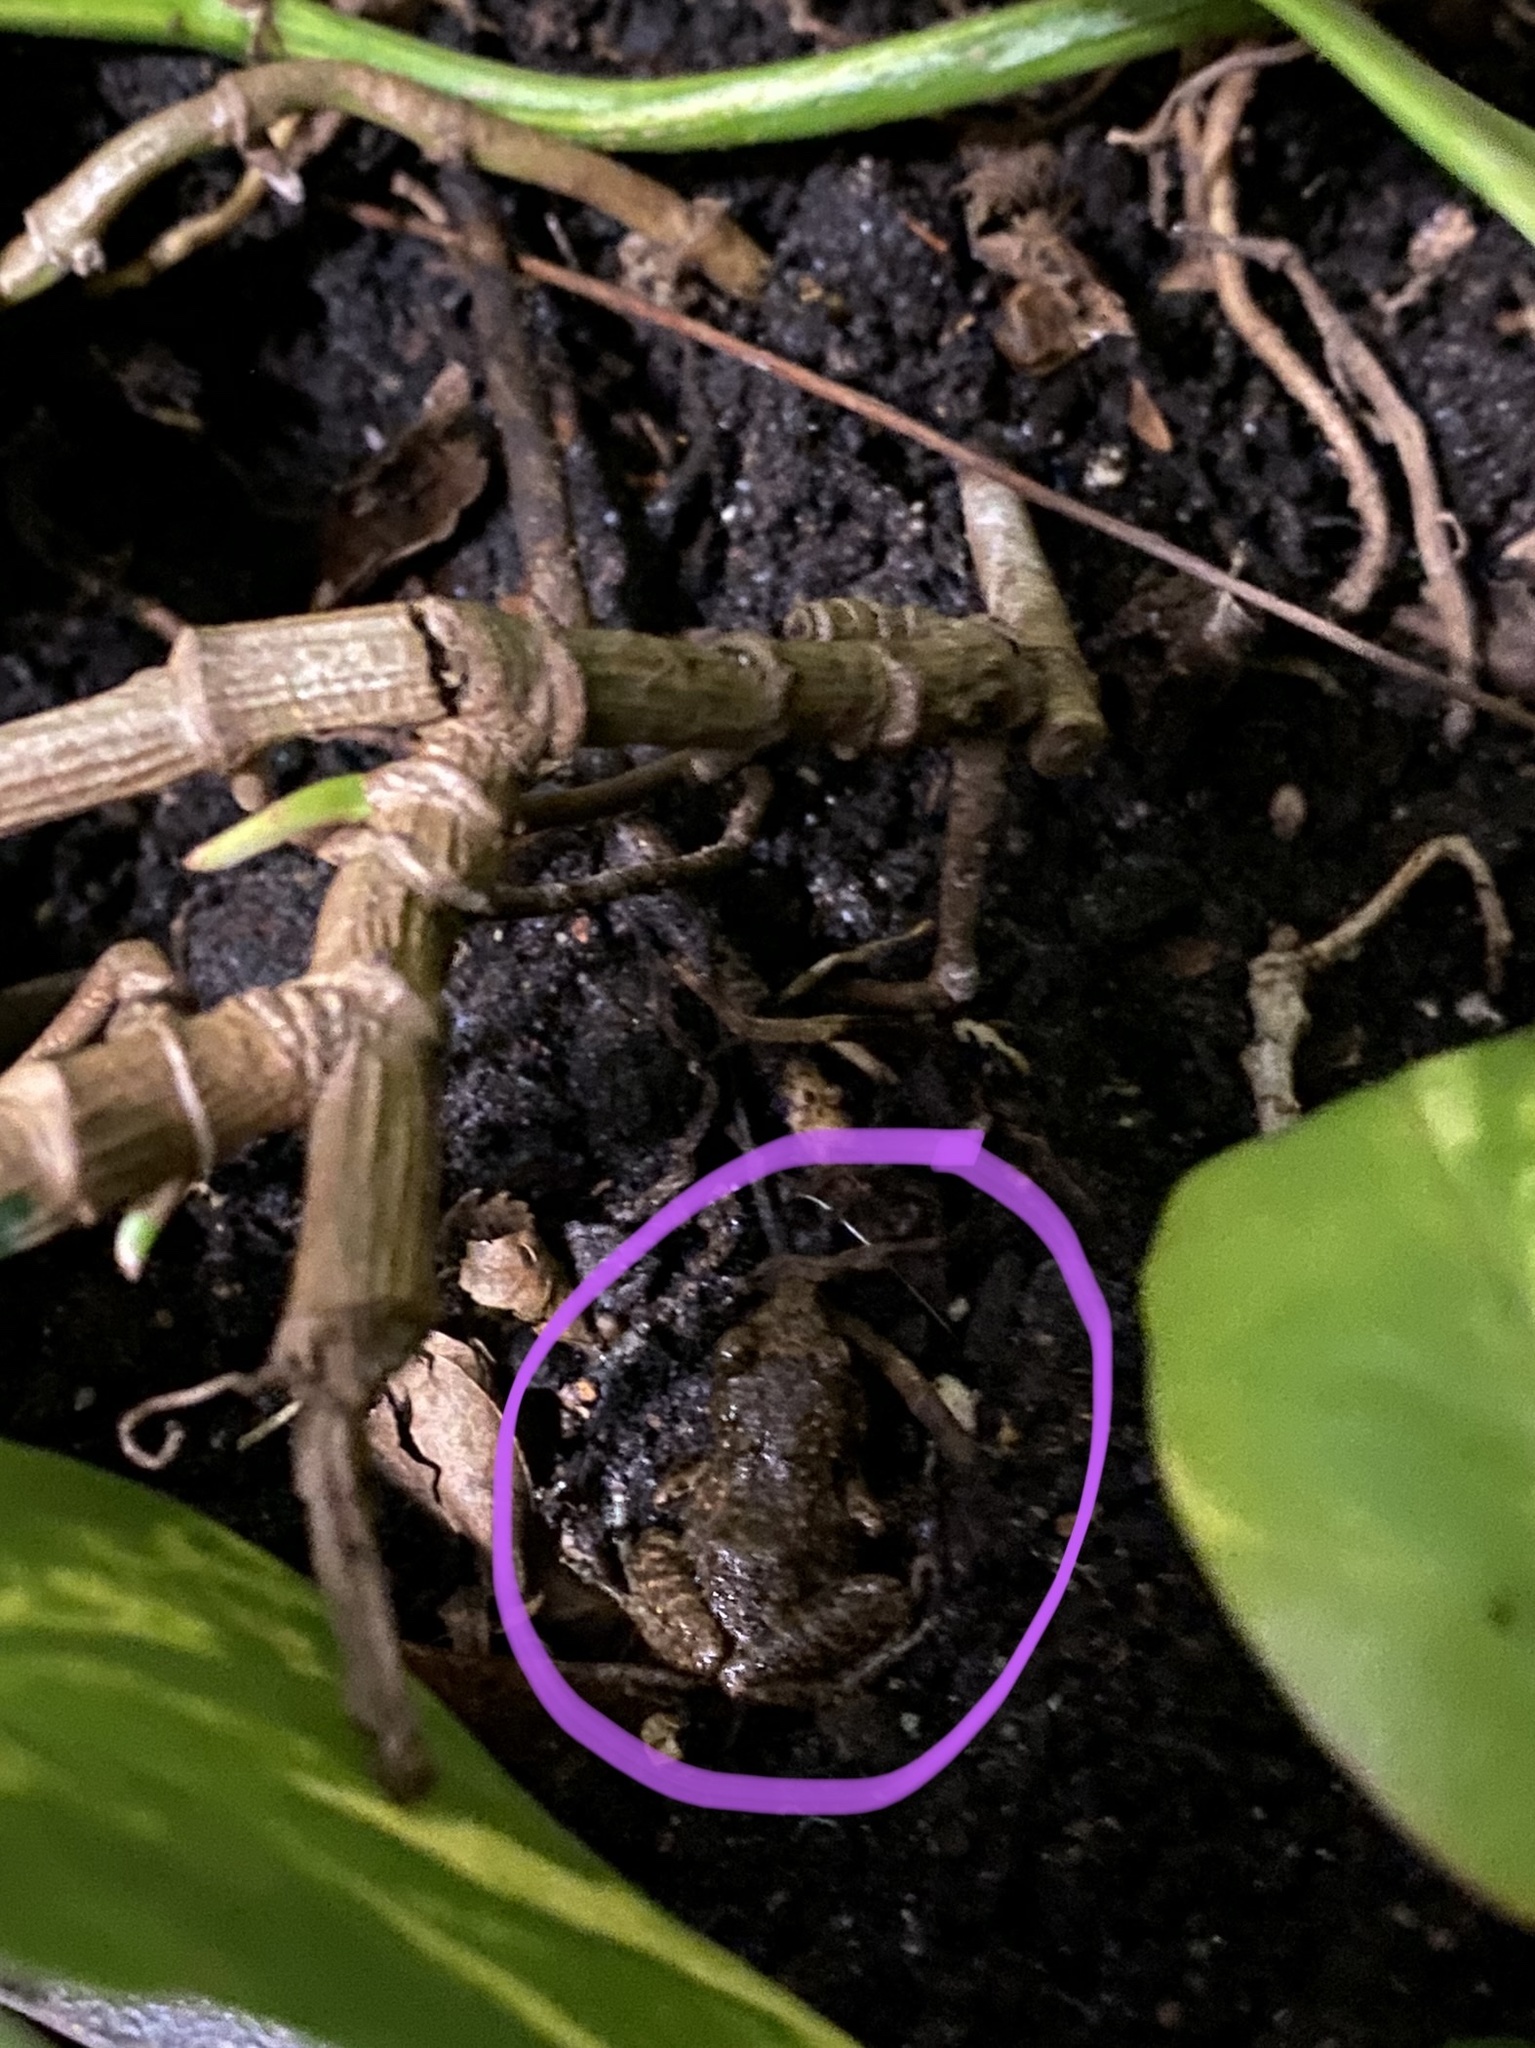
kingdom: Animalia
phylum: Chordata
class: Amphibia
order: Anura
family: Eleutherodactylidae
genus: Eleutherodactylus
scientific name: Eleutherodactylus planirostris
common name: Greenhouse frog
